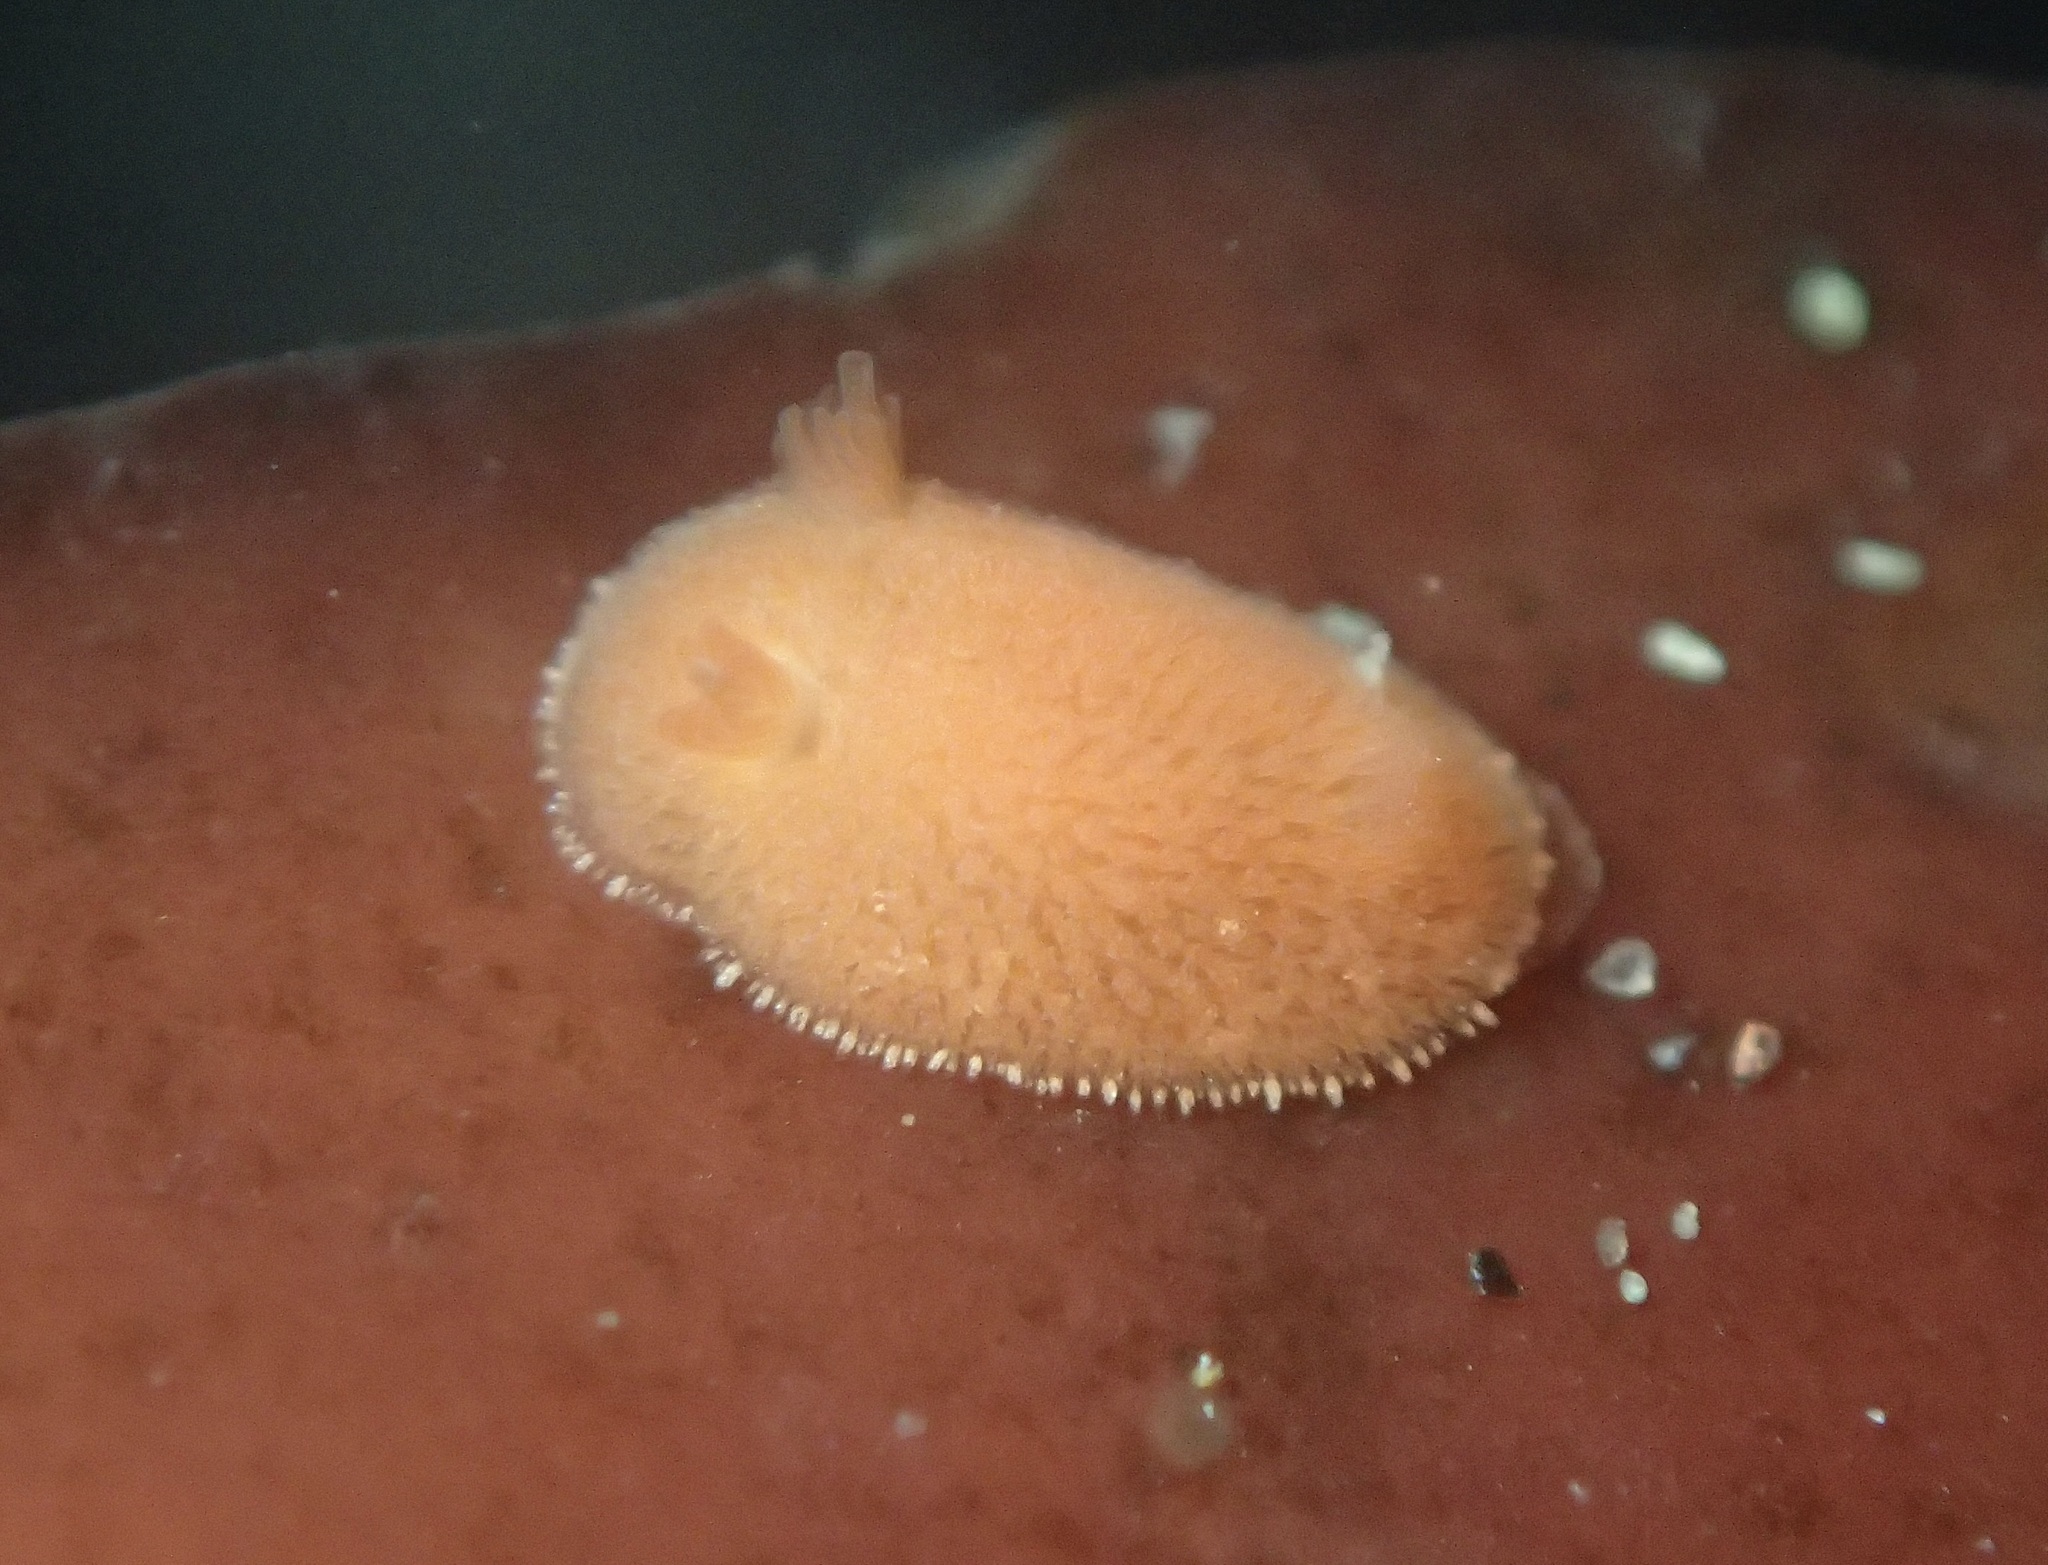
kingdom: Animalia
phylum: Mollusca
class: Gastropoda
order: Nudibranchia
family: Discodorididae
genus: Rostanga
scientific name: Rostanga pulchra
